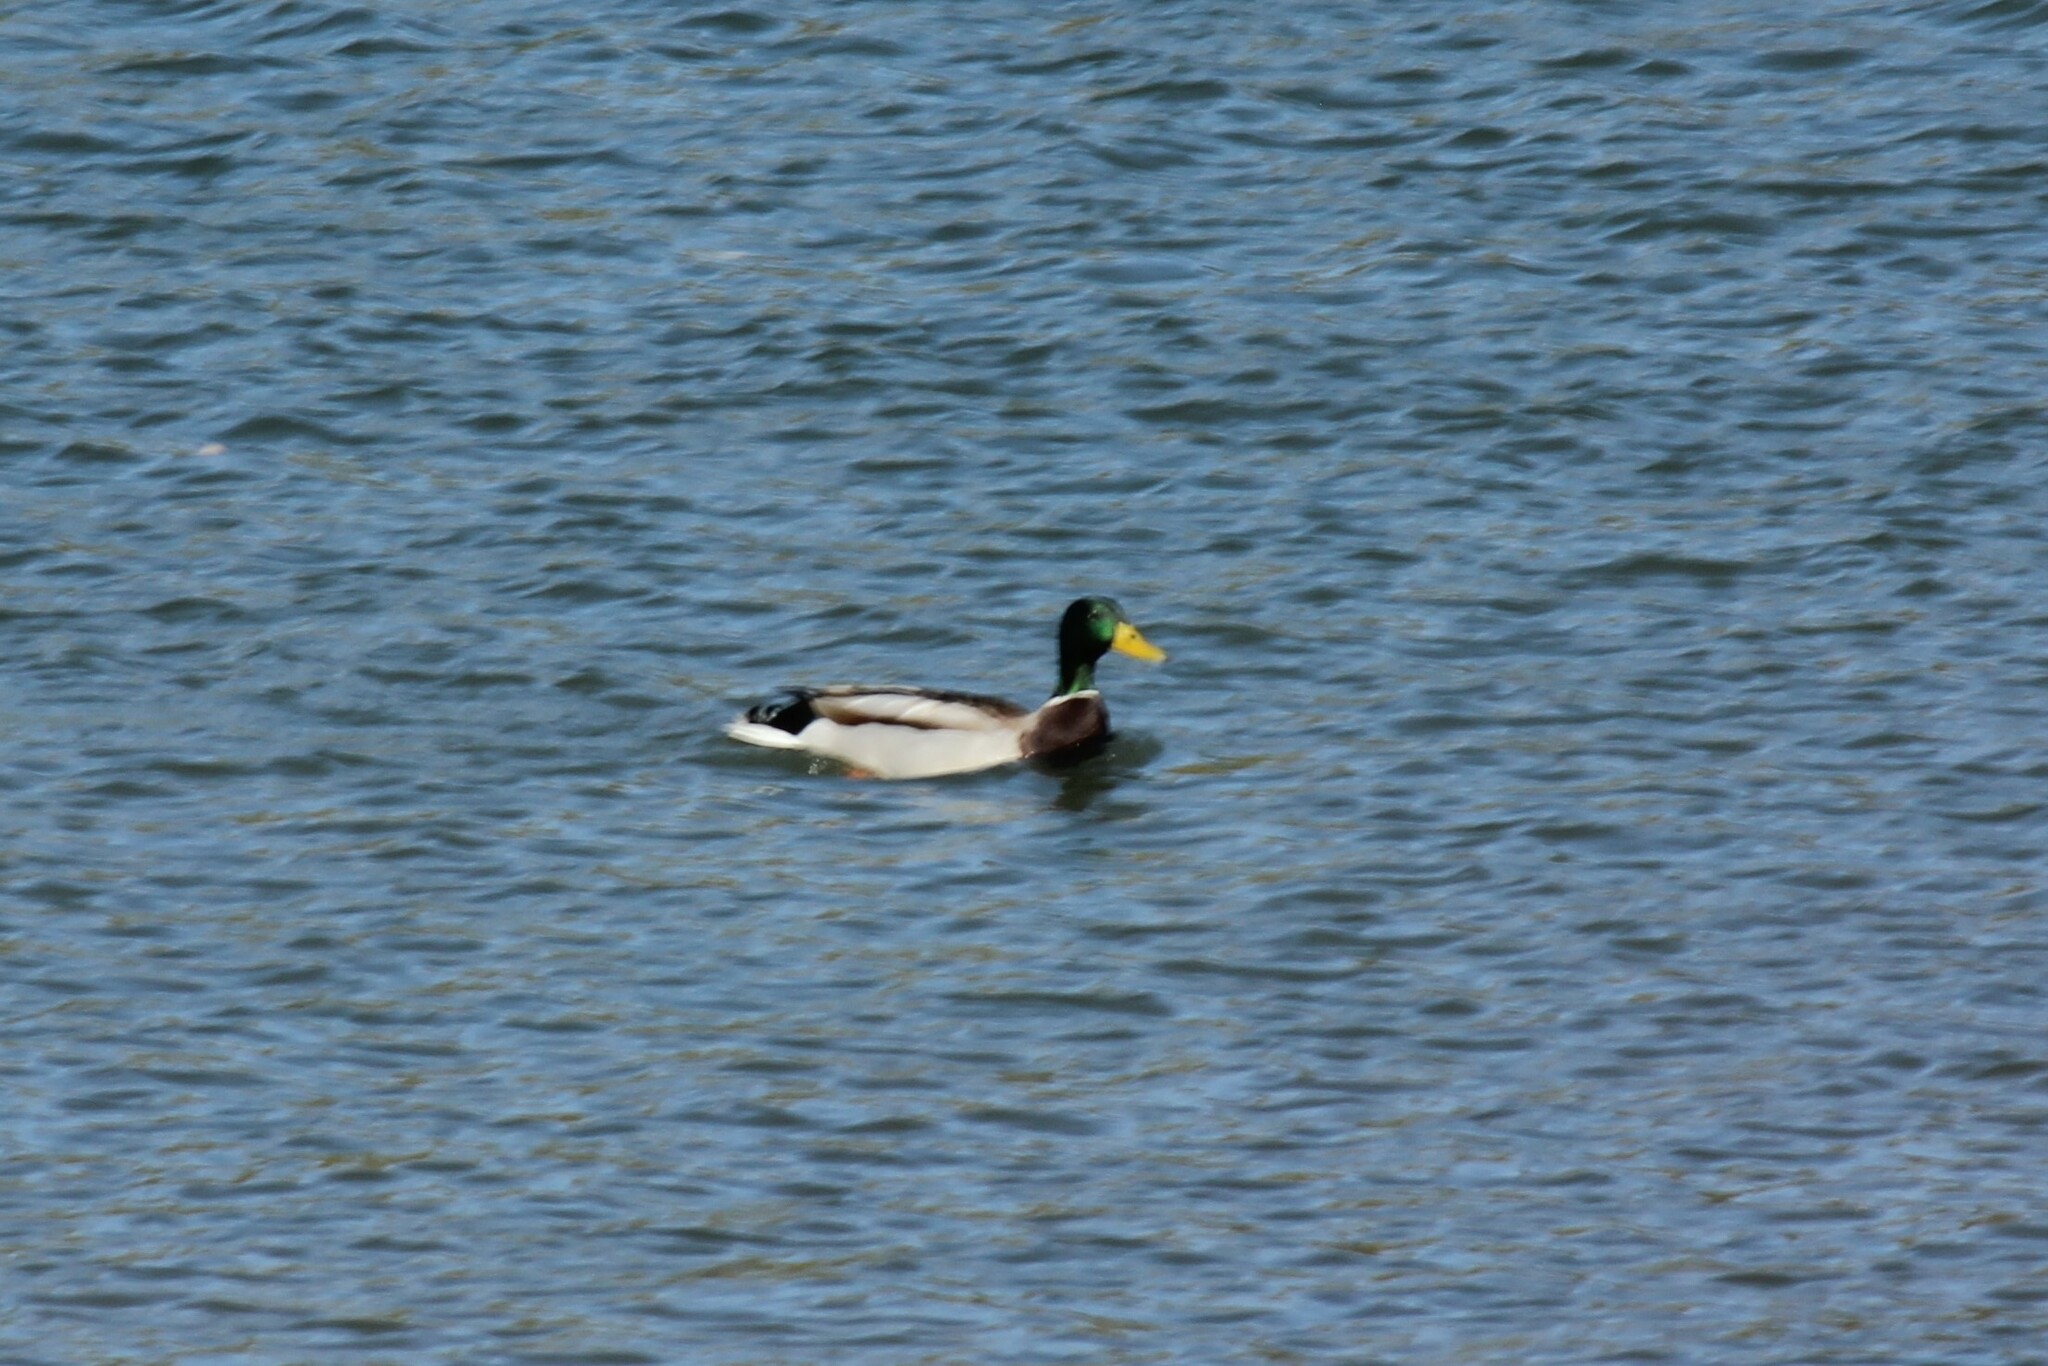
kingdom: Animalia
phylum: Chordata
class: Aves
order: Anseriformes
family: Anatidae
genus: Anas
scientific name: Anas platyrhynchos
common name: Mallard
